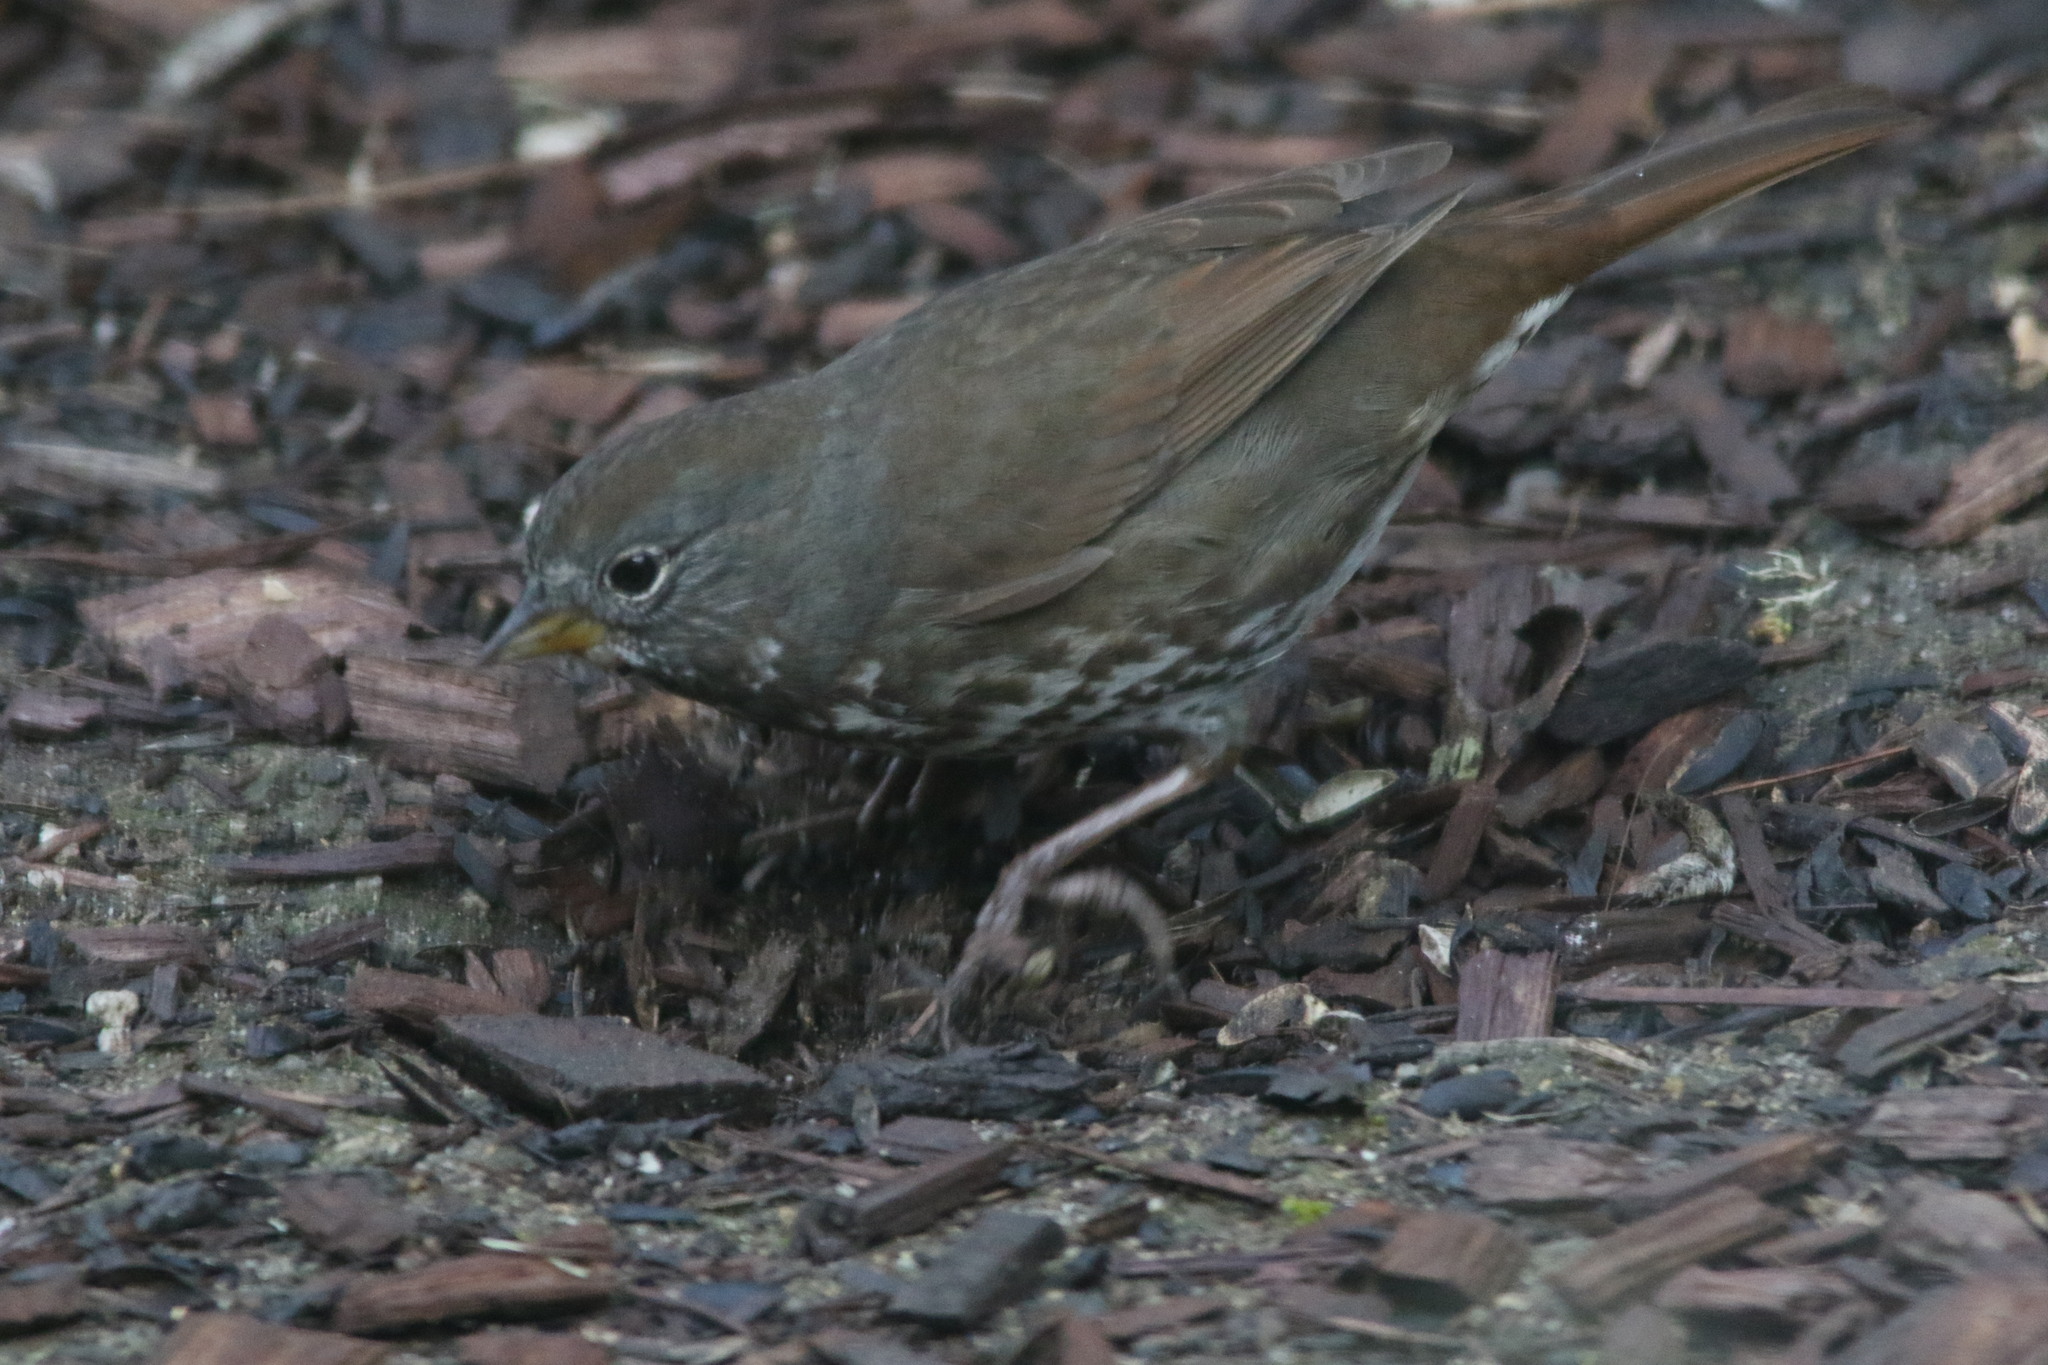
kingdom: Animalia
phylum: Chordata
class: Aves
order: Passeriformes
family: Passerellidae
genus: Passerella
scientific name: Passerella iliaca
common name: Fox sparrow
